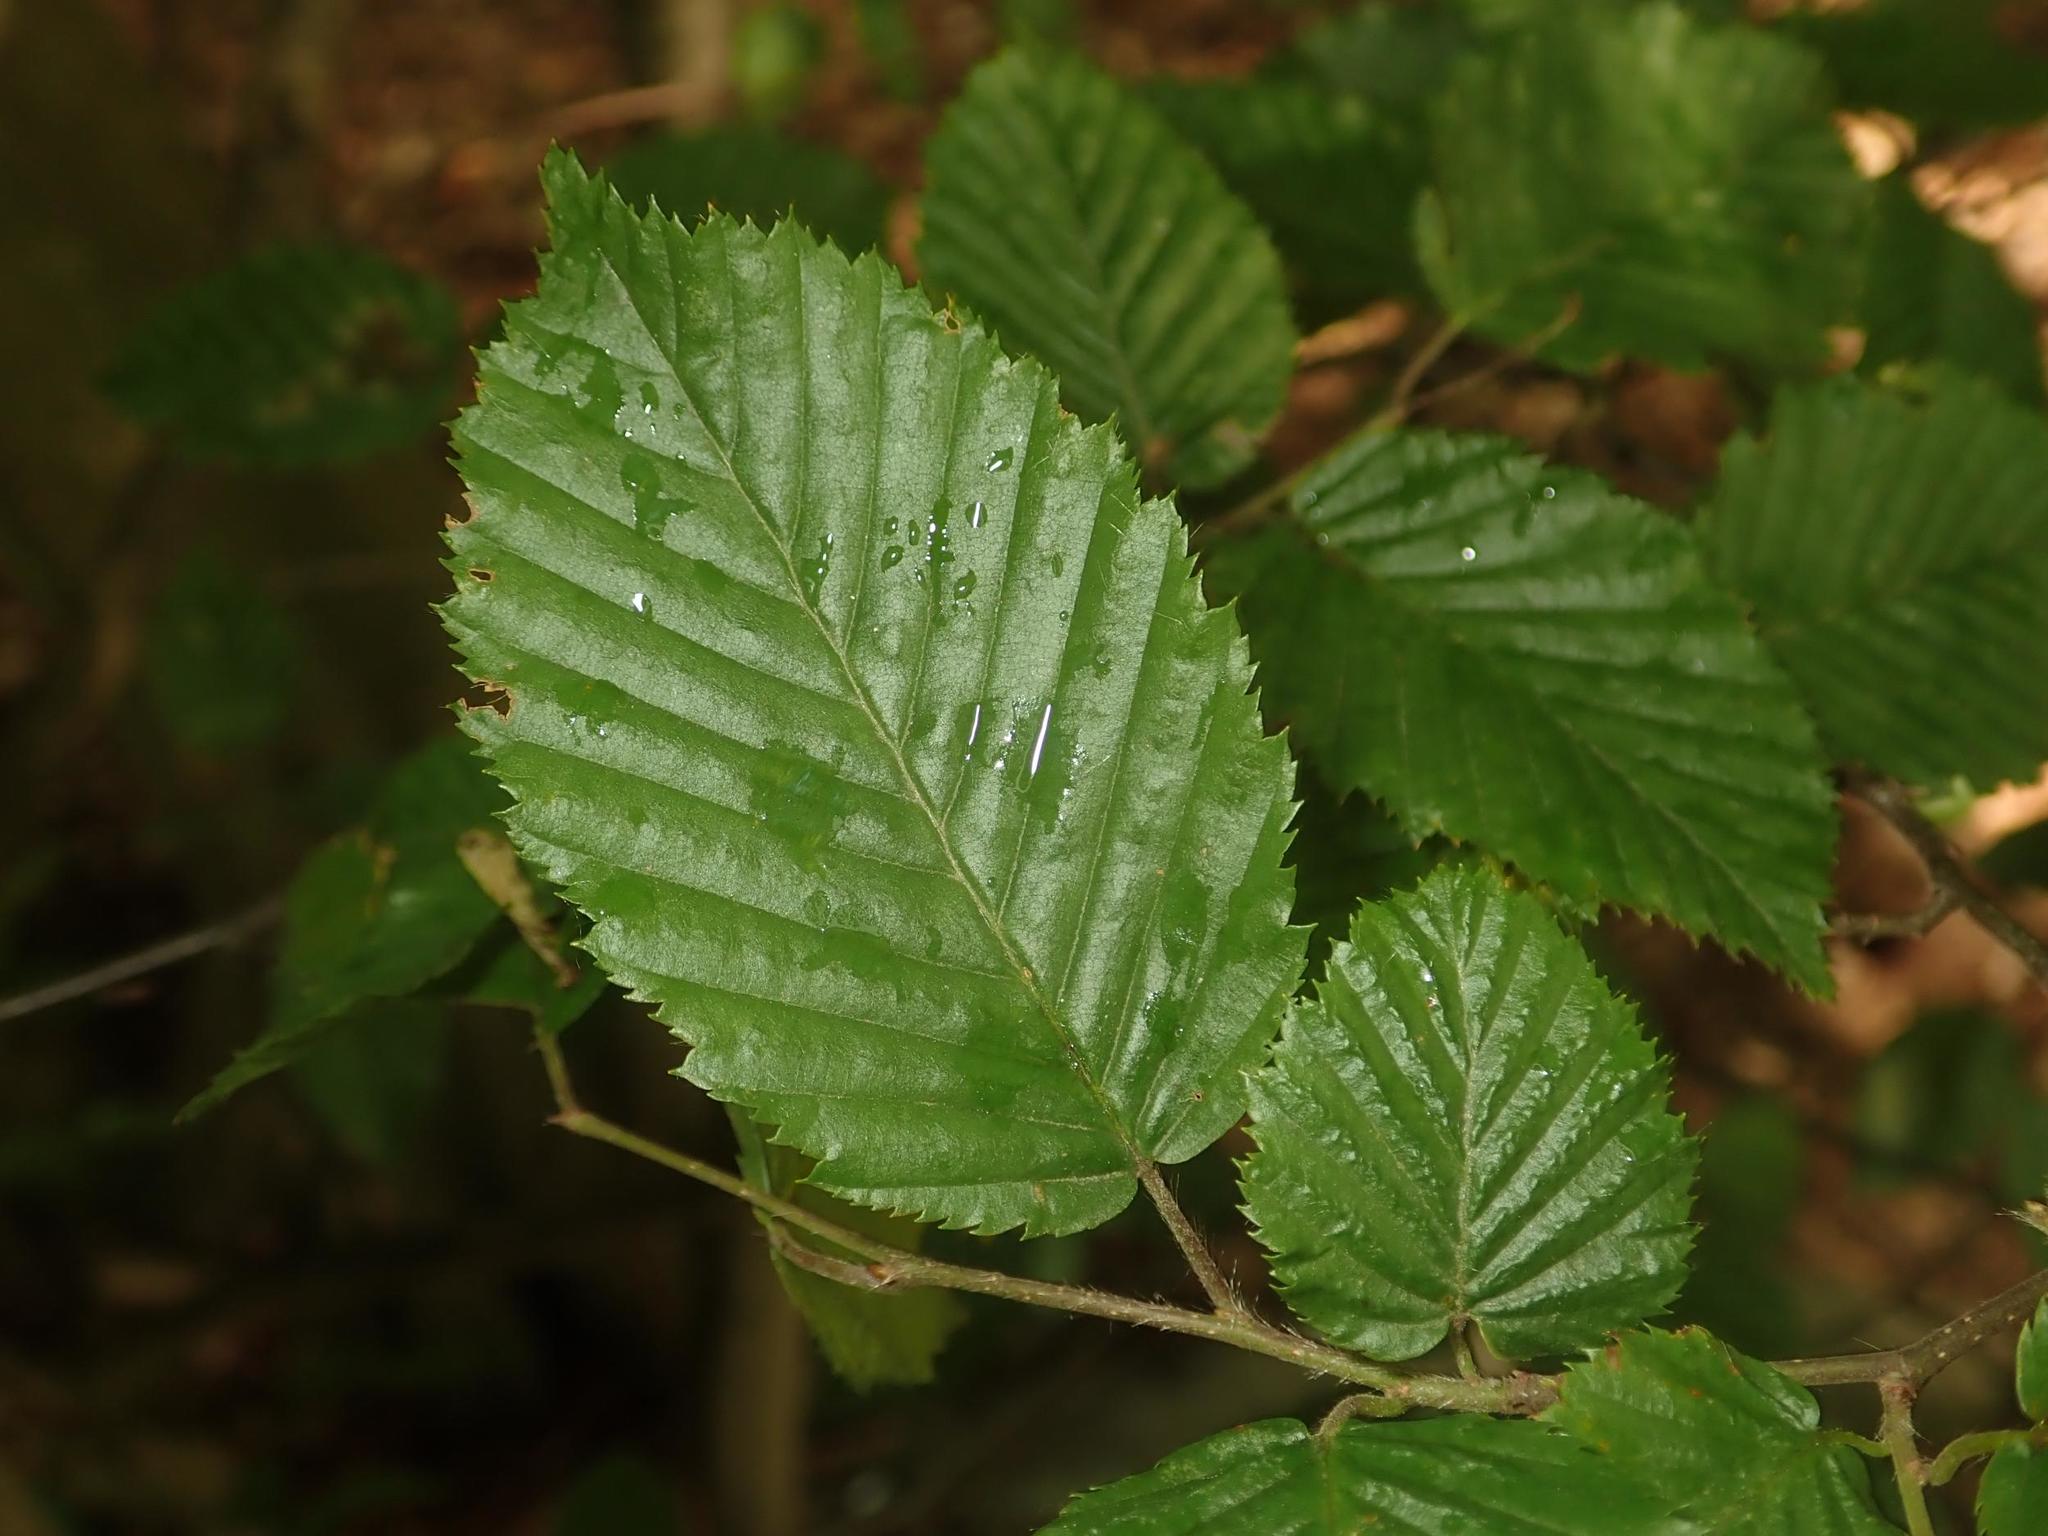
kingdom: Plantae
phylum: Tracheophyta
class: Magnoliopsida
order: Fagales
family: Betulaceae
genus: Carpinus
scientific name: Carpinus betulus
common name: Hornbeam
